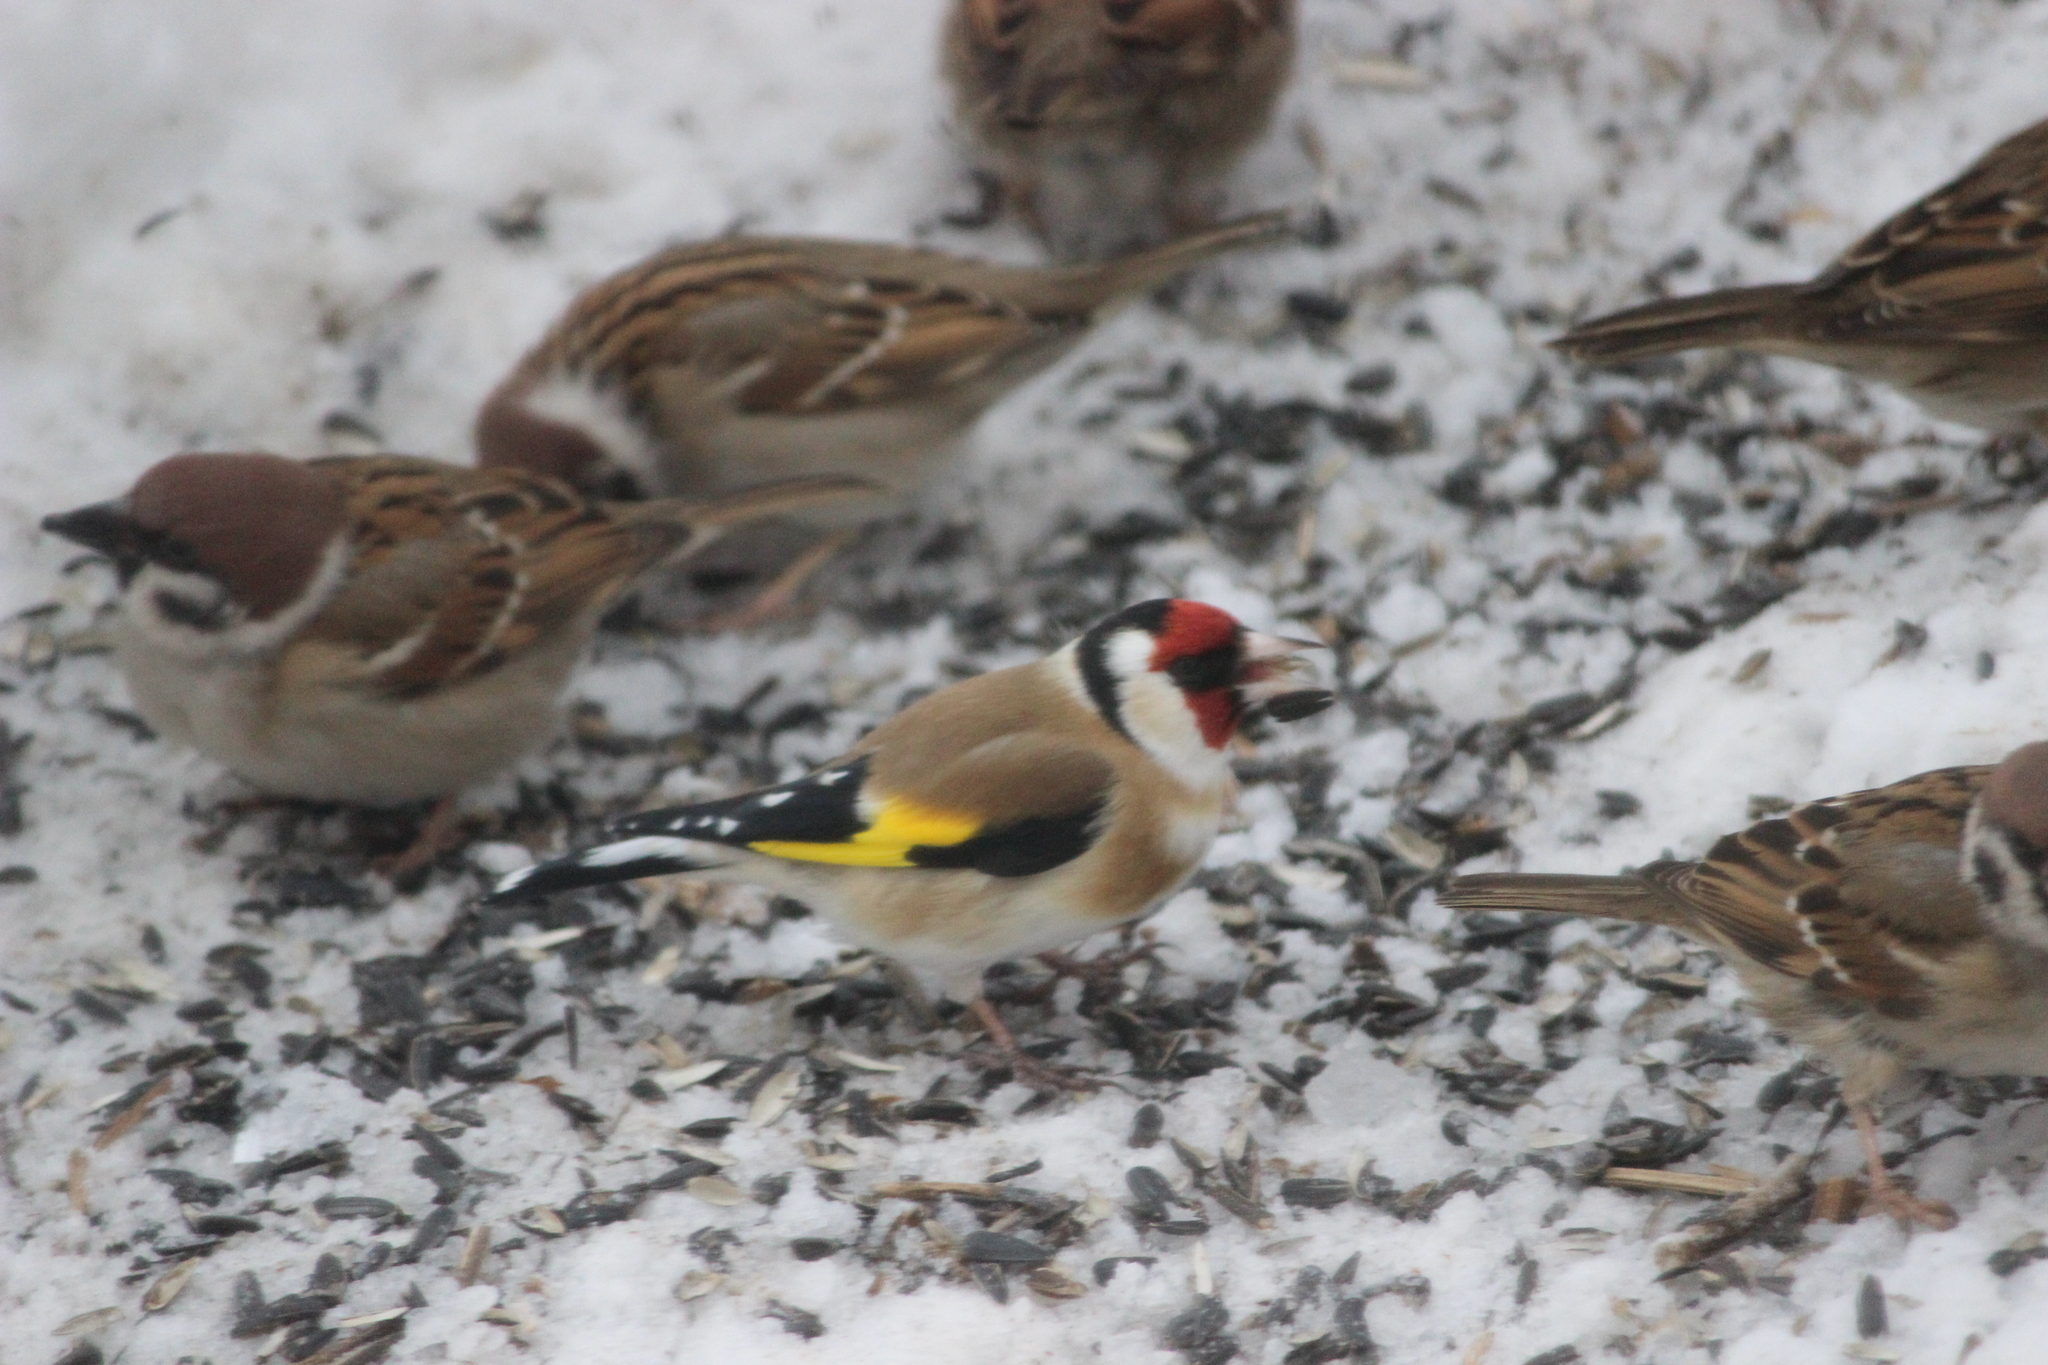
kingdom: Animalia
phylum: Chordata
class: Aves
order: Passeriformes
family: Fringillidae
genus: Carduelis
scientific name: Carduelis carduelis
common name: European goldfinch
